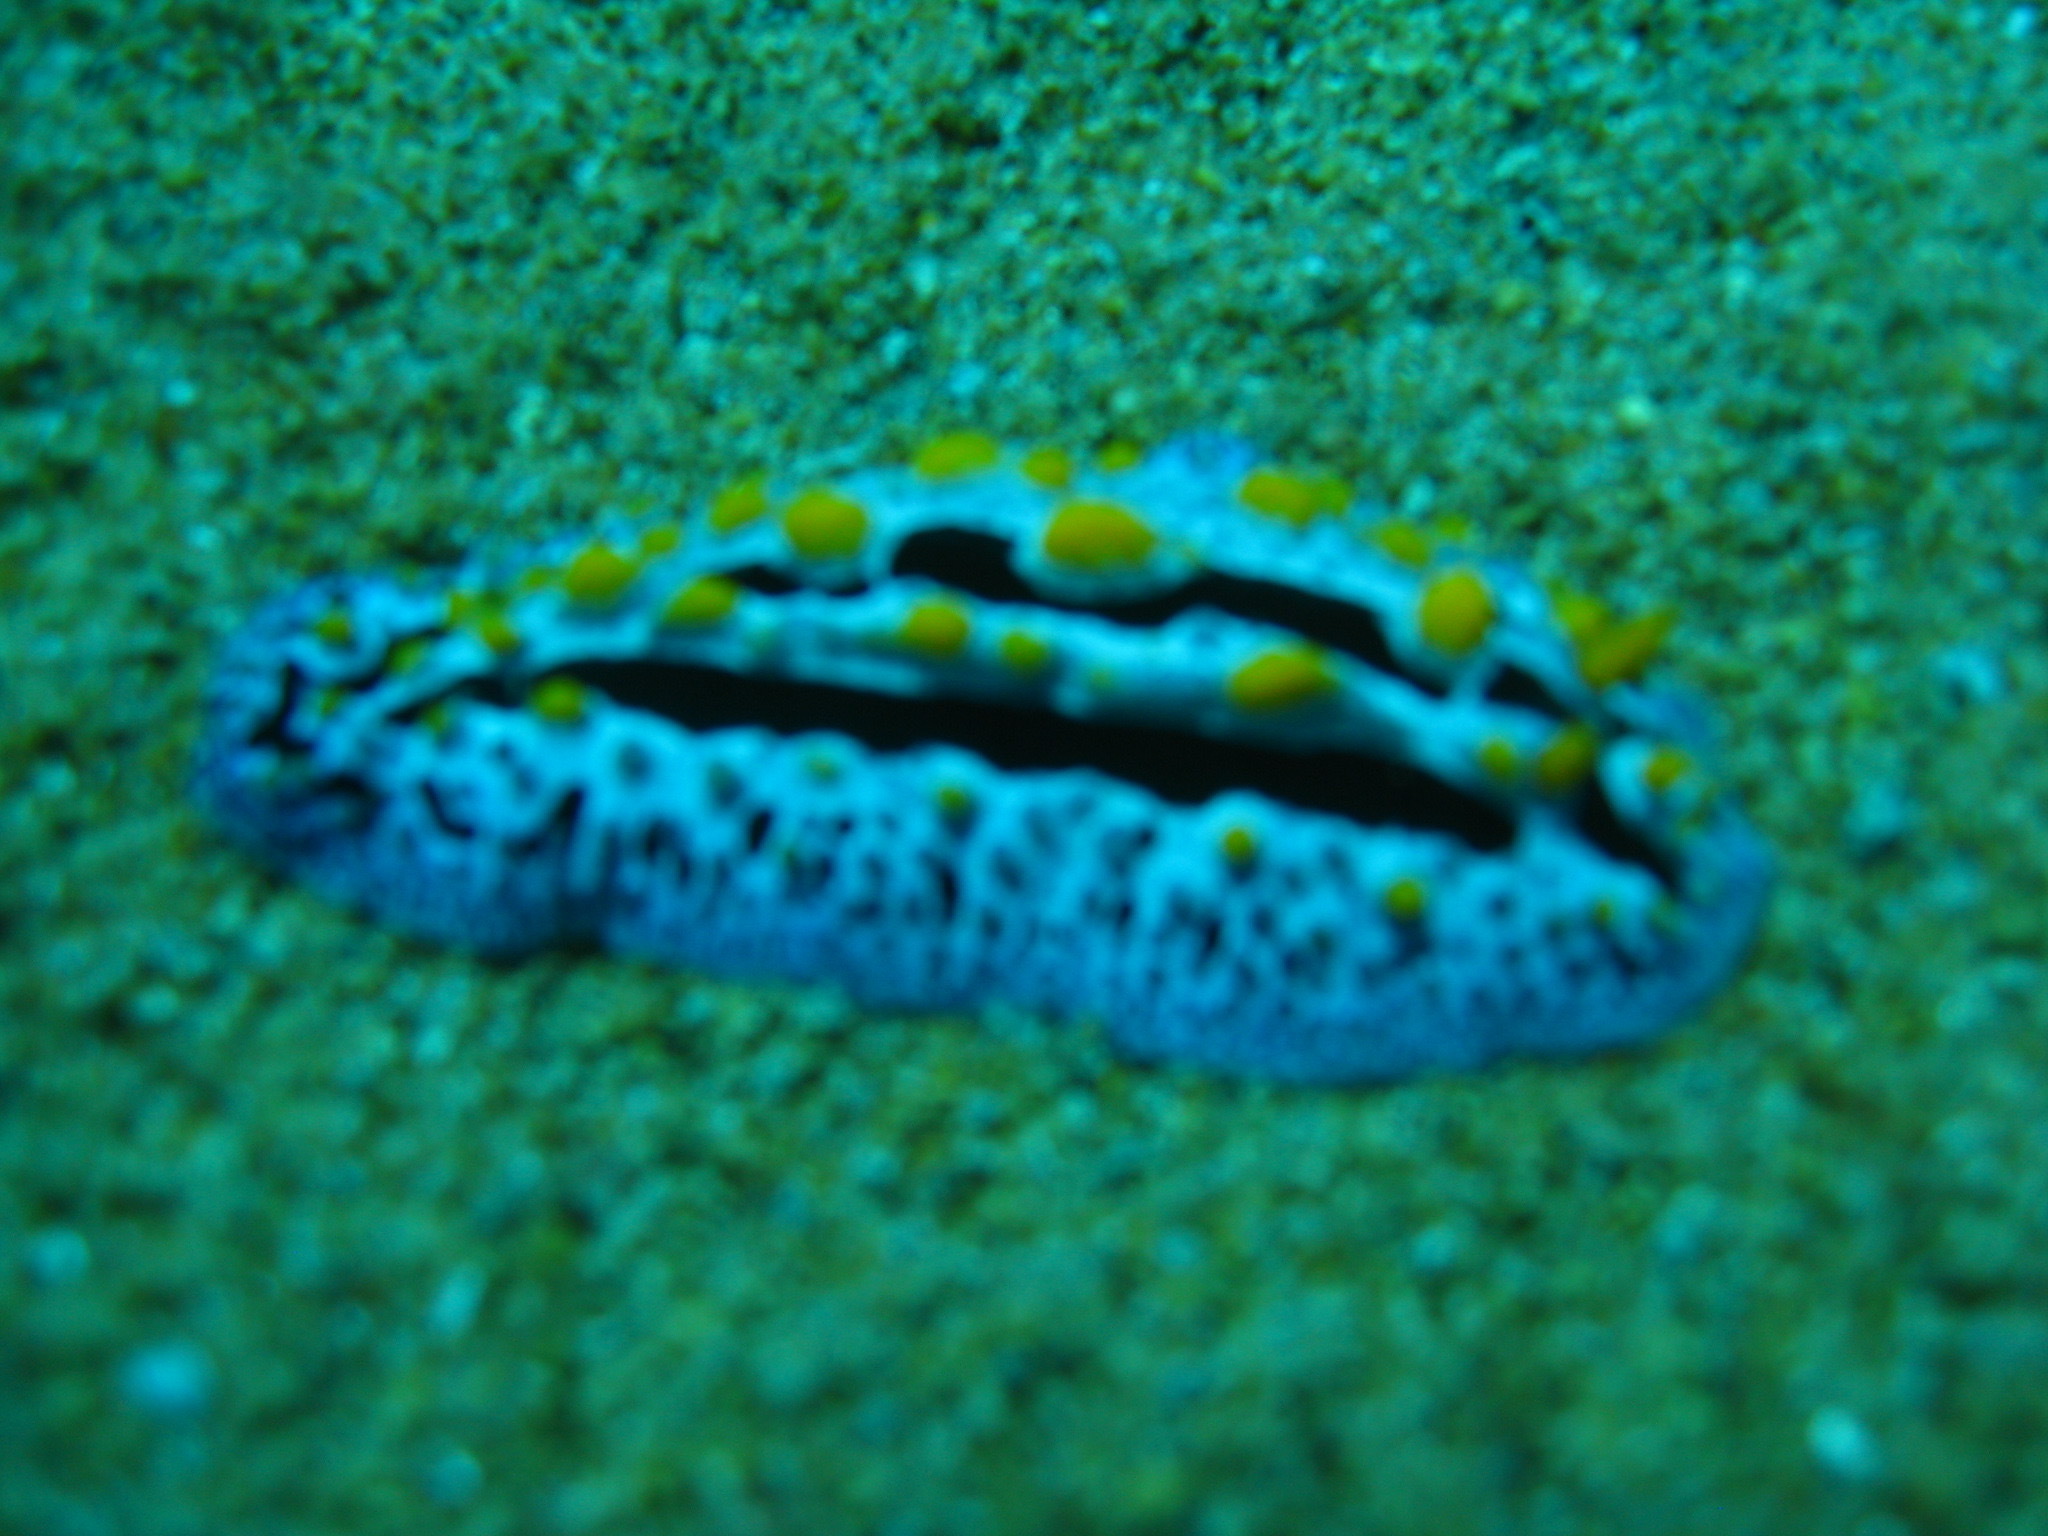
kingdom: Animalia
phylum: Mollusca
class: Gastropoda
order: Nudibranchia
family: Phyllidiidae
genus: Phyllidia
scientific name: Phyllidia coelestis
